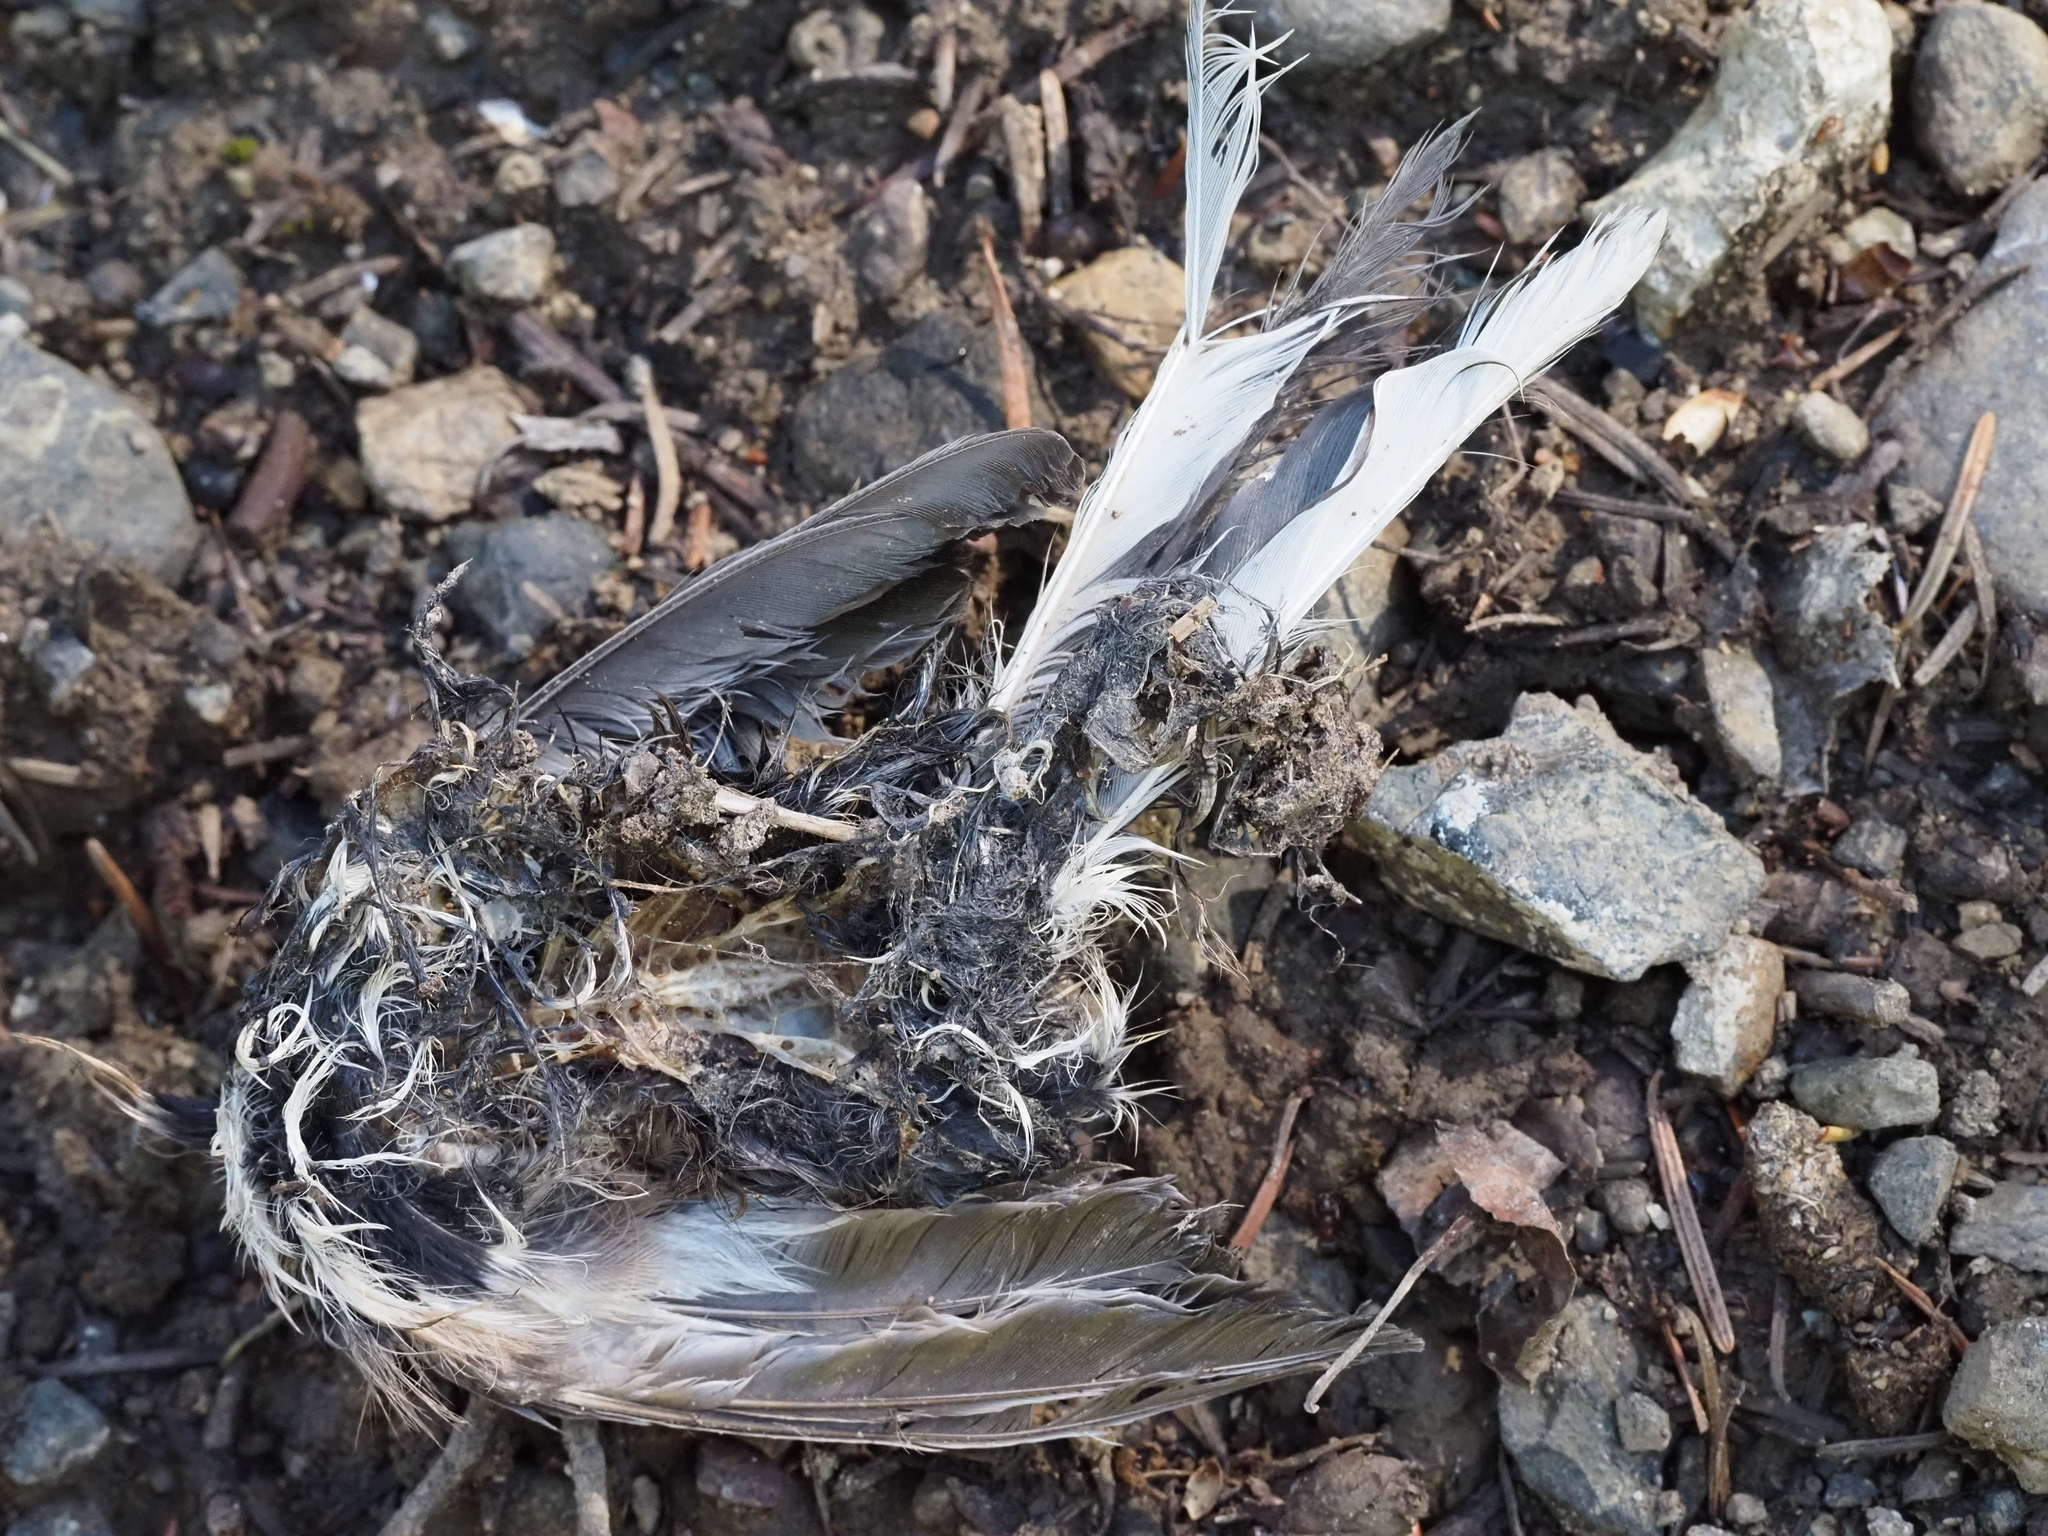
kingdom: Animalia
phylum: Chordata
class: Aves
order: Passeriformes
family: Passerellidae
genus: Junco
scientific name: Junco hyemalis
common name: Dark-eyed junco
